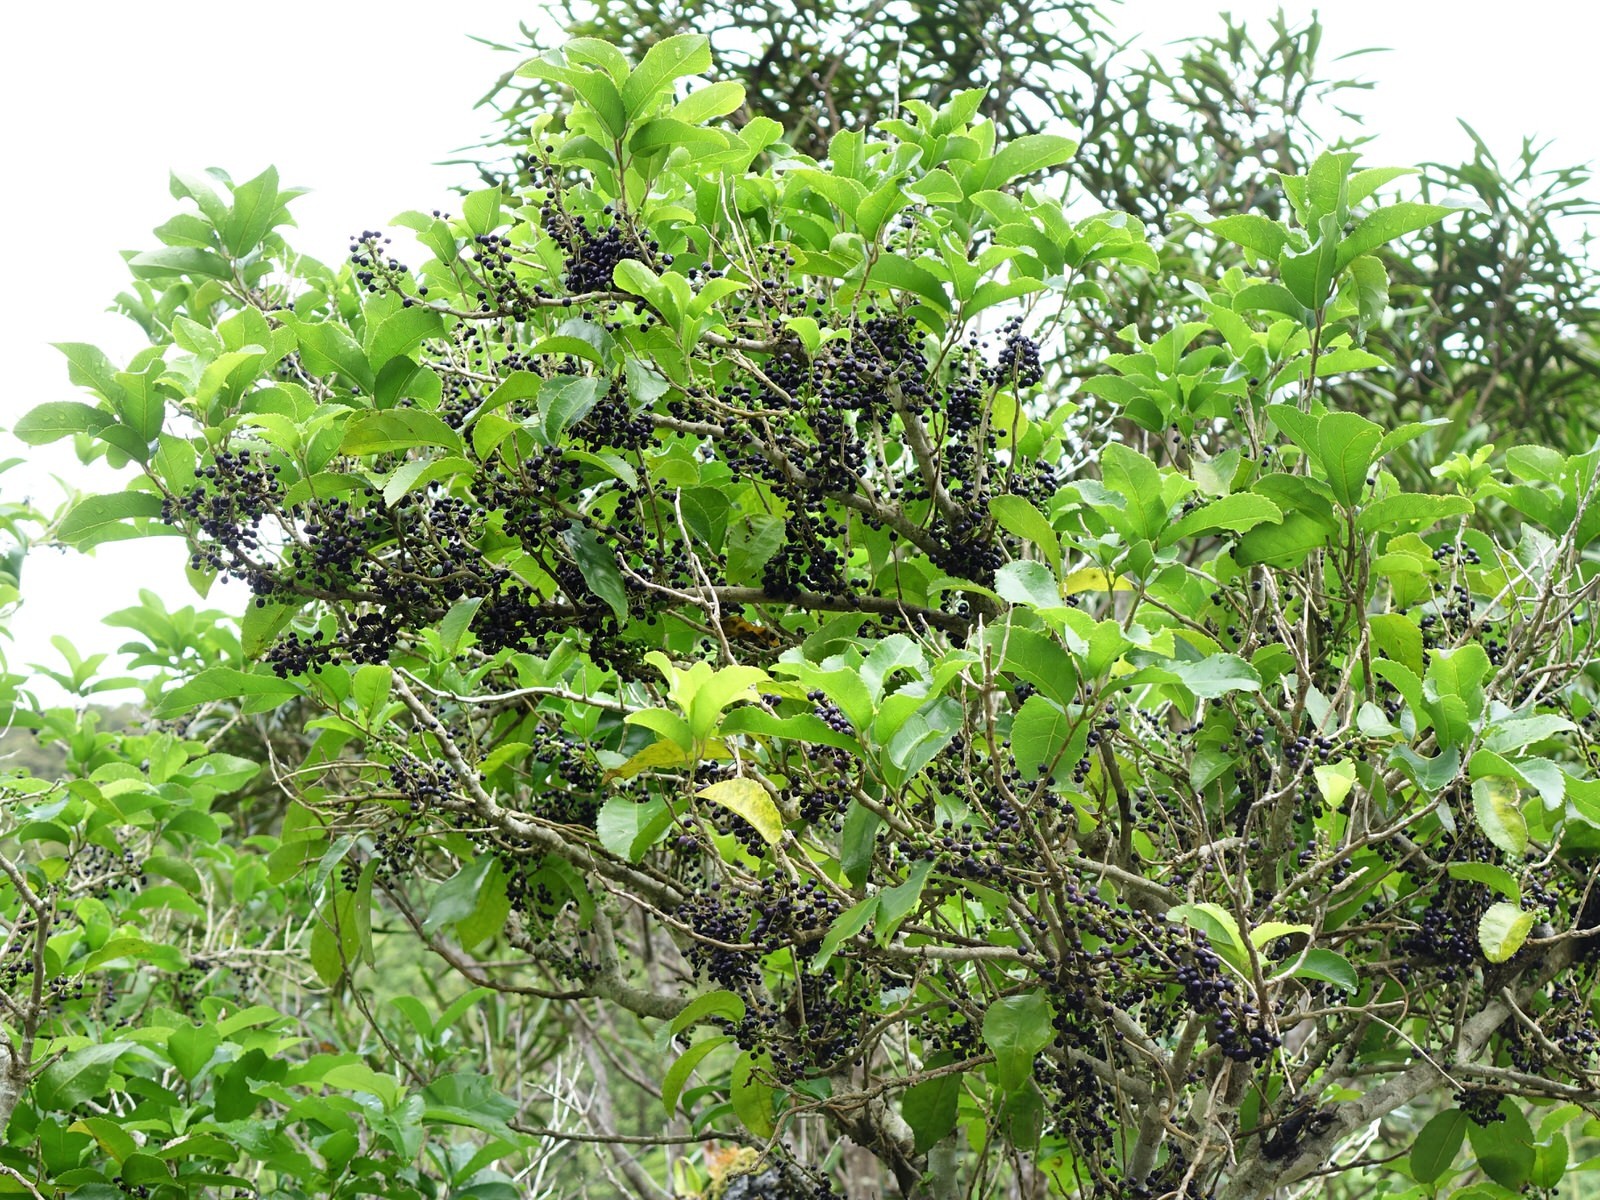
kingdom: Plantae
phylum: Tracheophyta
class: Magnoliopsida
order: Malpighiales
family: Violaceae
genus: Melicytus
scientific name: Melicytus ramiflorus
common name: Mahoe
